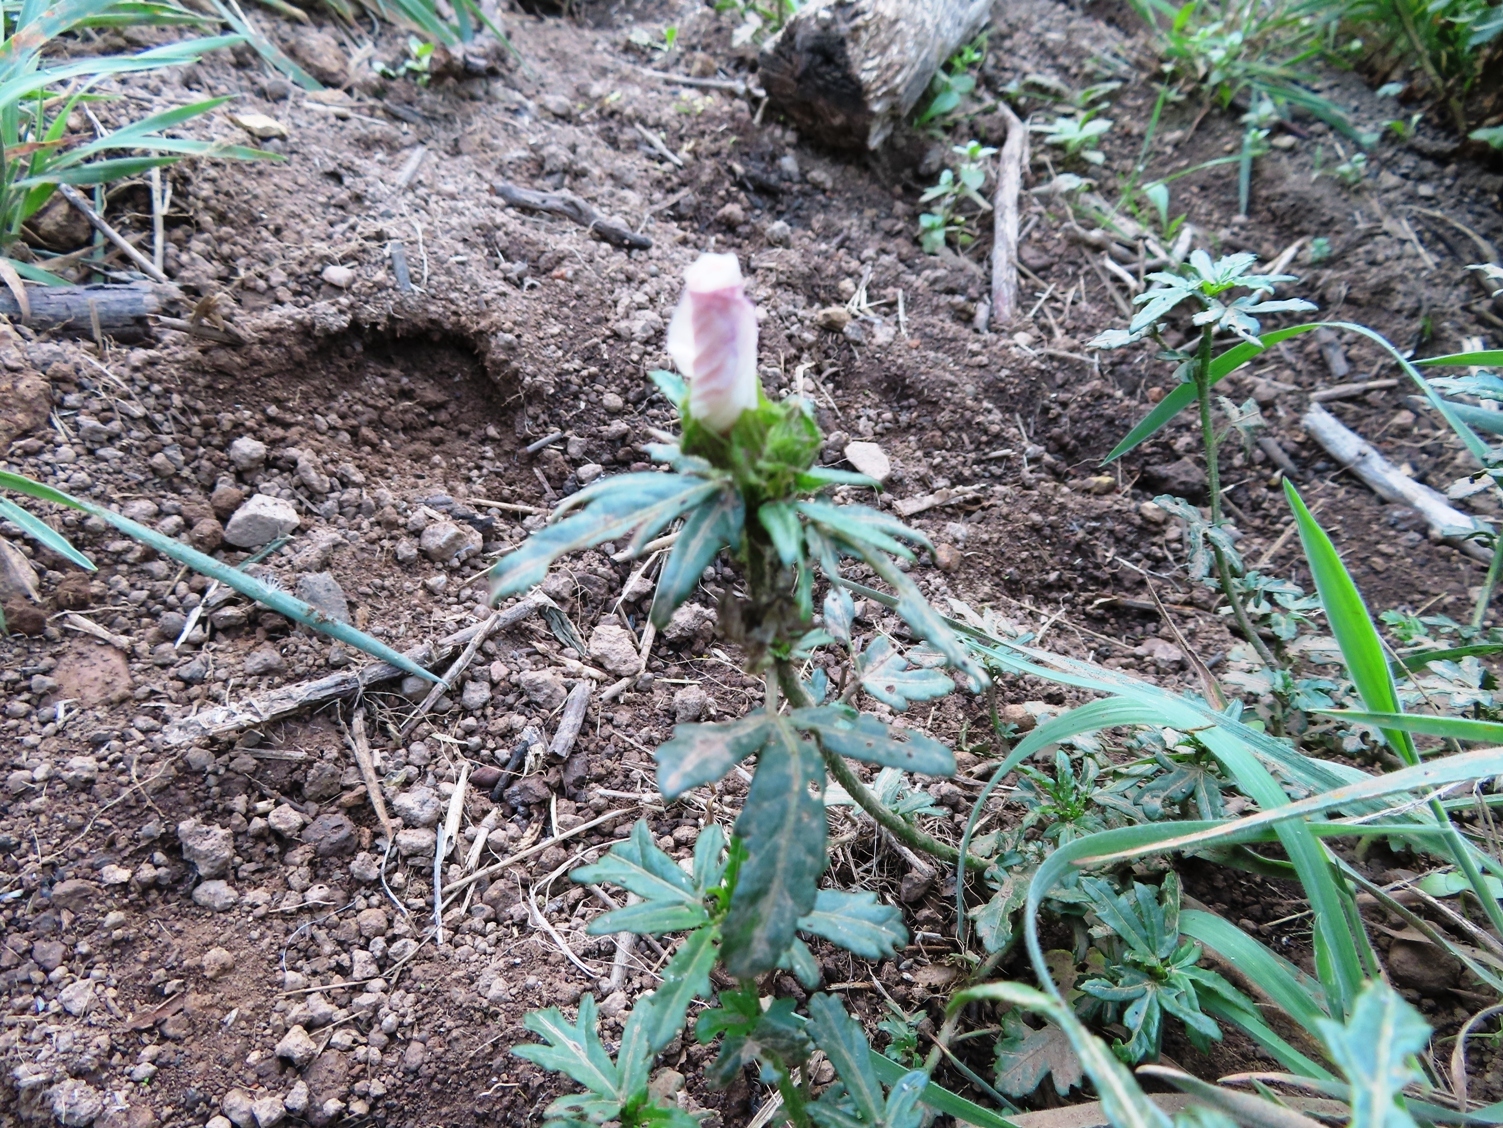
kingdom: Plantae
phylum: Tracheophyta
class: Magnoliopsida
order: Malvales
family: Malvaceae
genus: Hibiscus
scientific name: Hibiscus trionum
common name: Bladder ketmia
